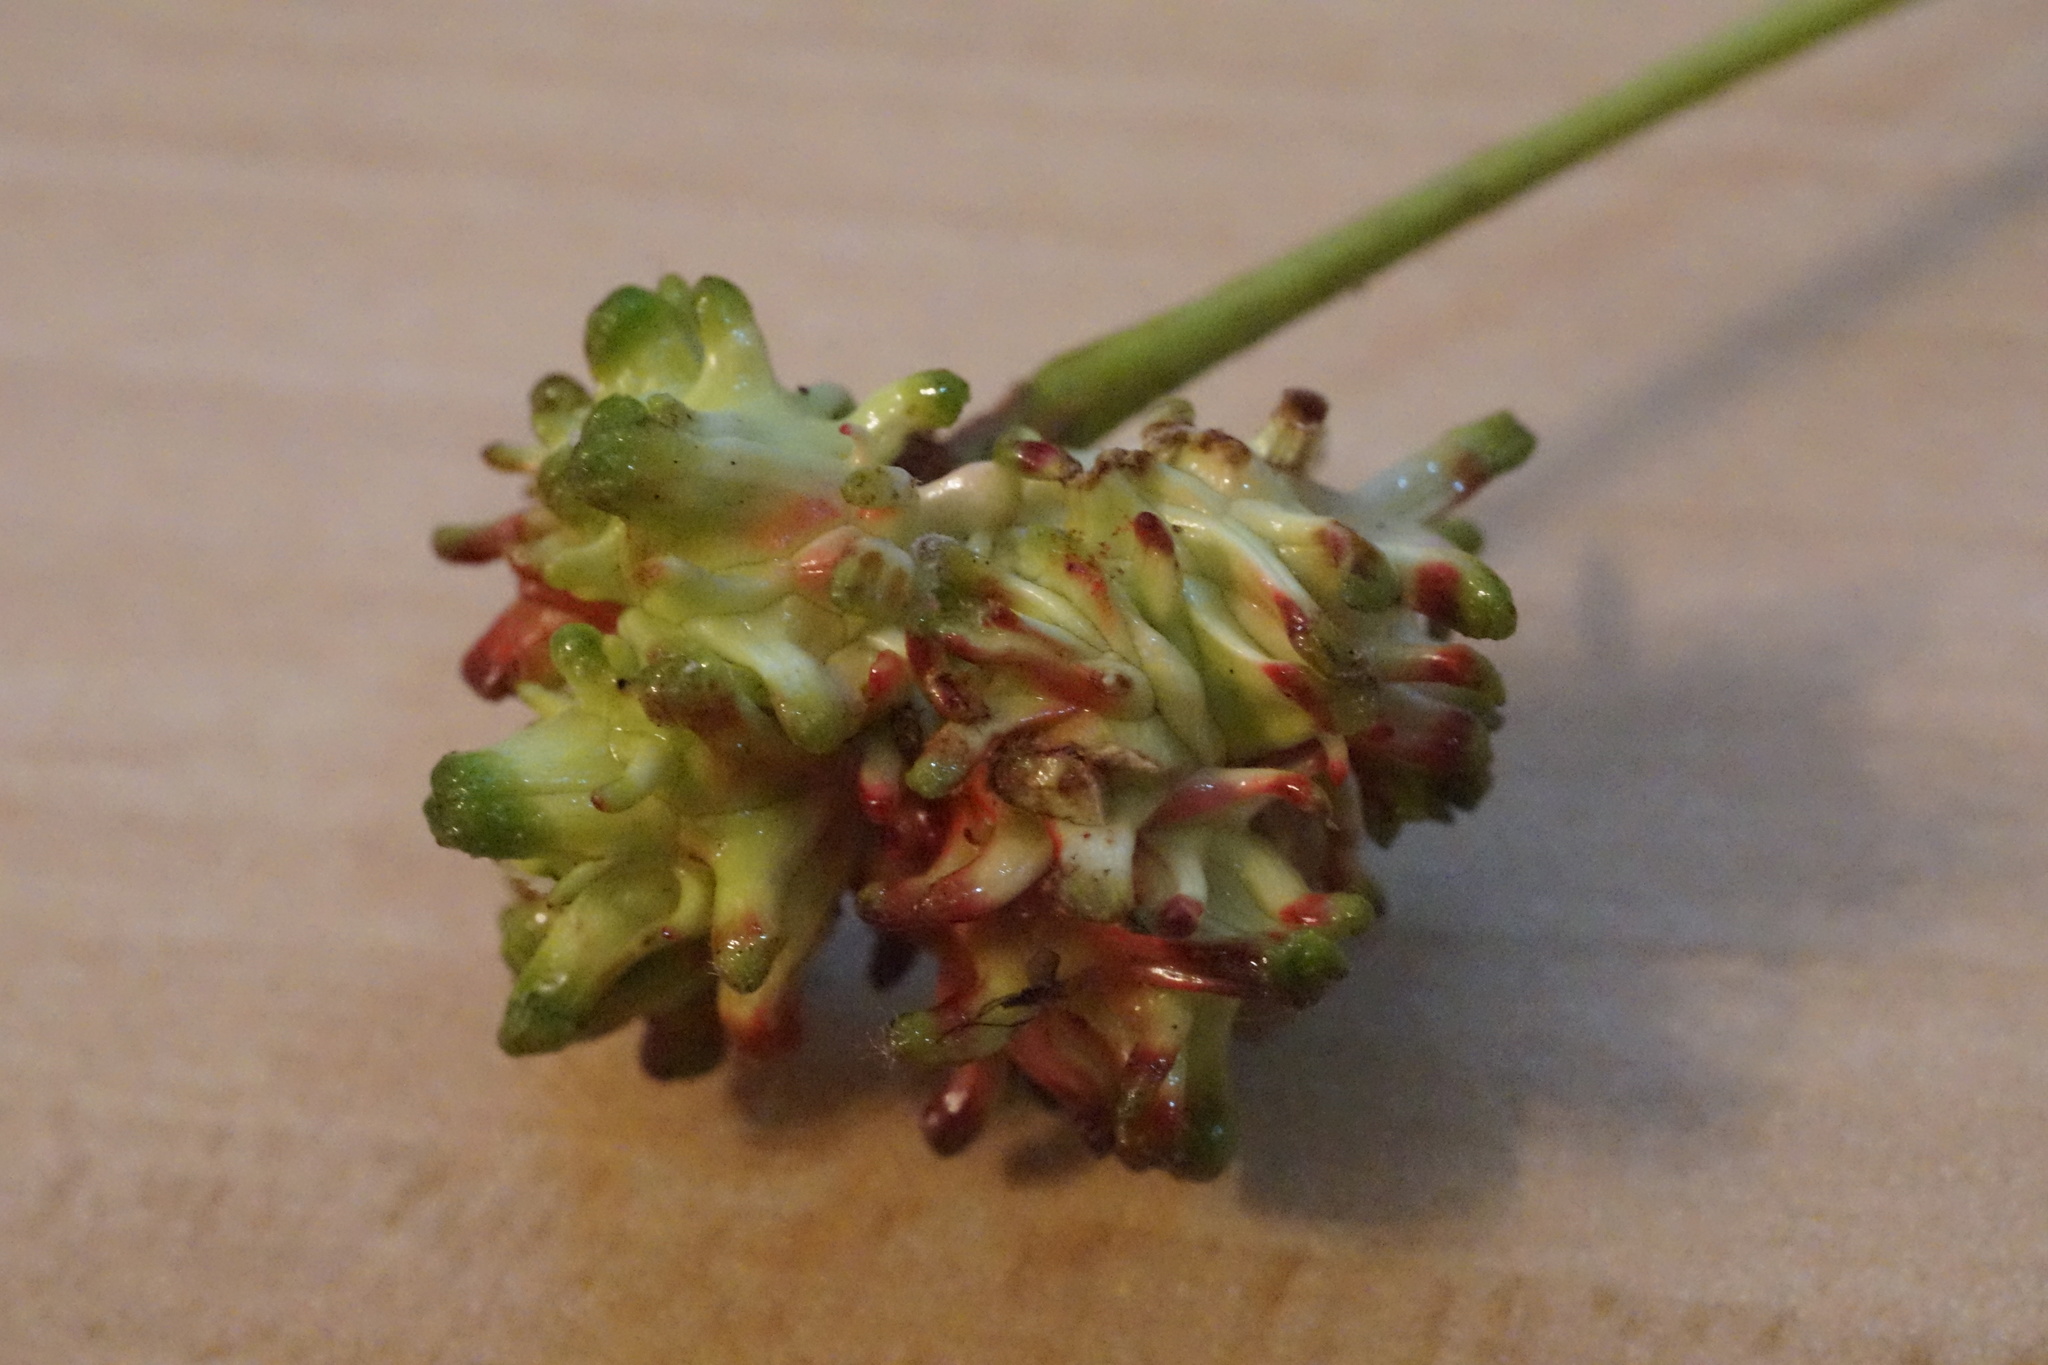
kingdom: Animalia
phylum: Arthropoda
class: Insecta
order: Hymenoptera
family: Cynipidae
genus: Andricus
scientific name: Andricus grossulariae
